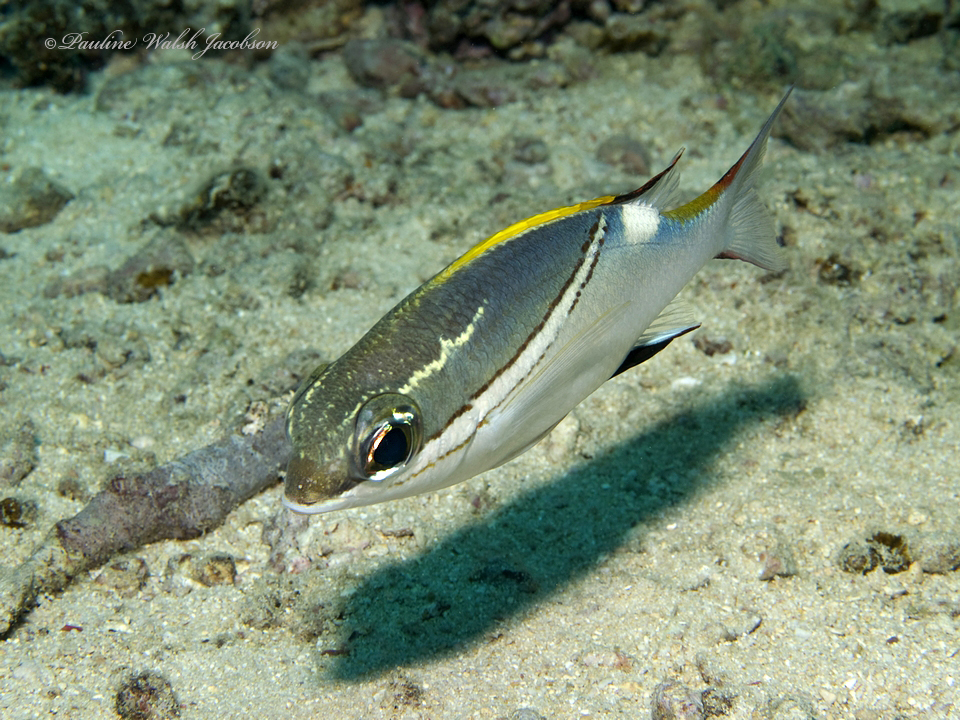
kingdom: Animalia
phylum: Chordata
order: Perciformes
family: Nemipteridae
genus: Scolopsis
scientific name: Scolopsis bilineata
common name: Two-lined monocle bream
